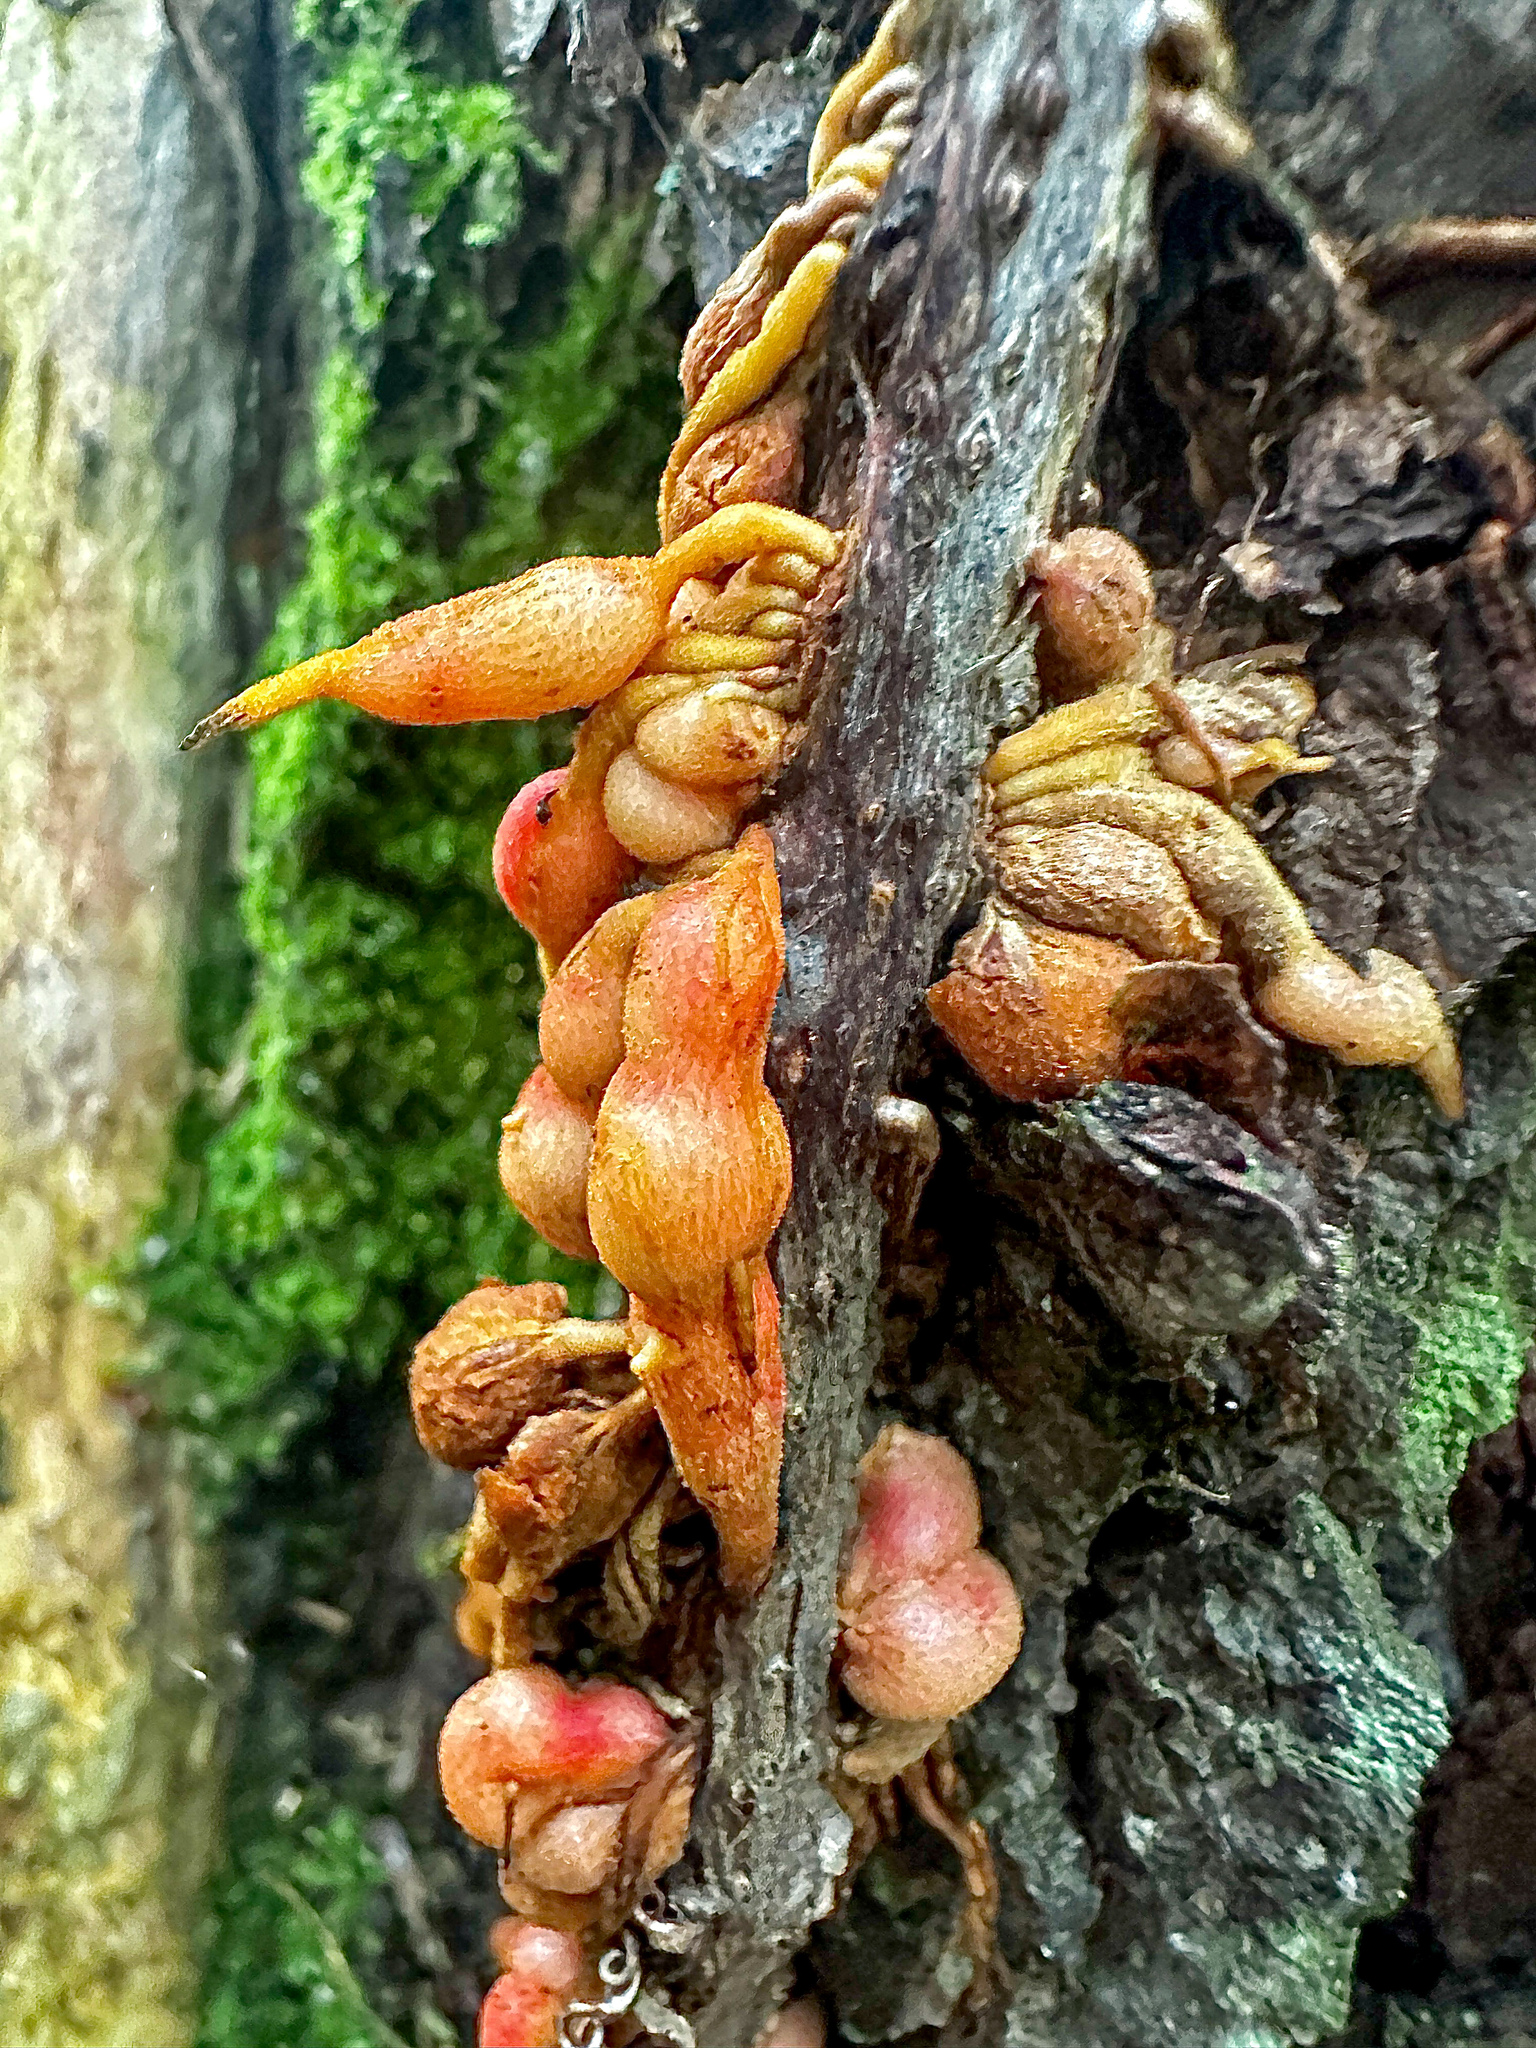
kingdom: Animalia
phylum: Arthropoda
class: Insecta
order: Diptera
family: Cecidomyiidae
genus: Lasioptera
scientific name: Lasioptera psederae
